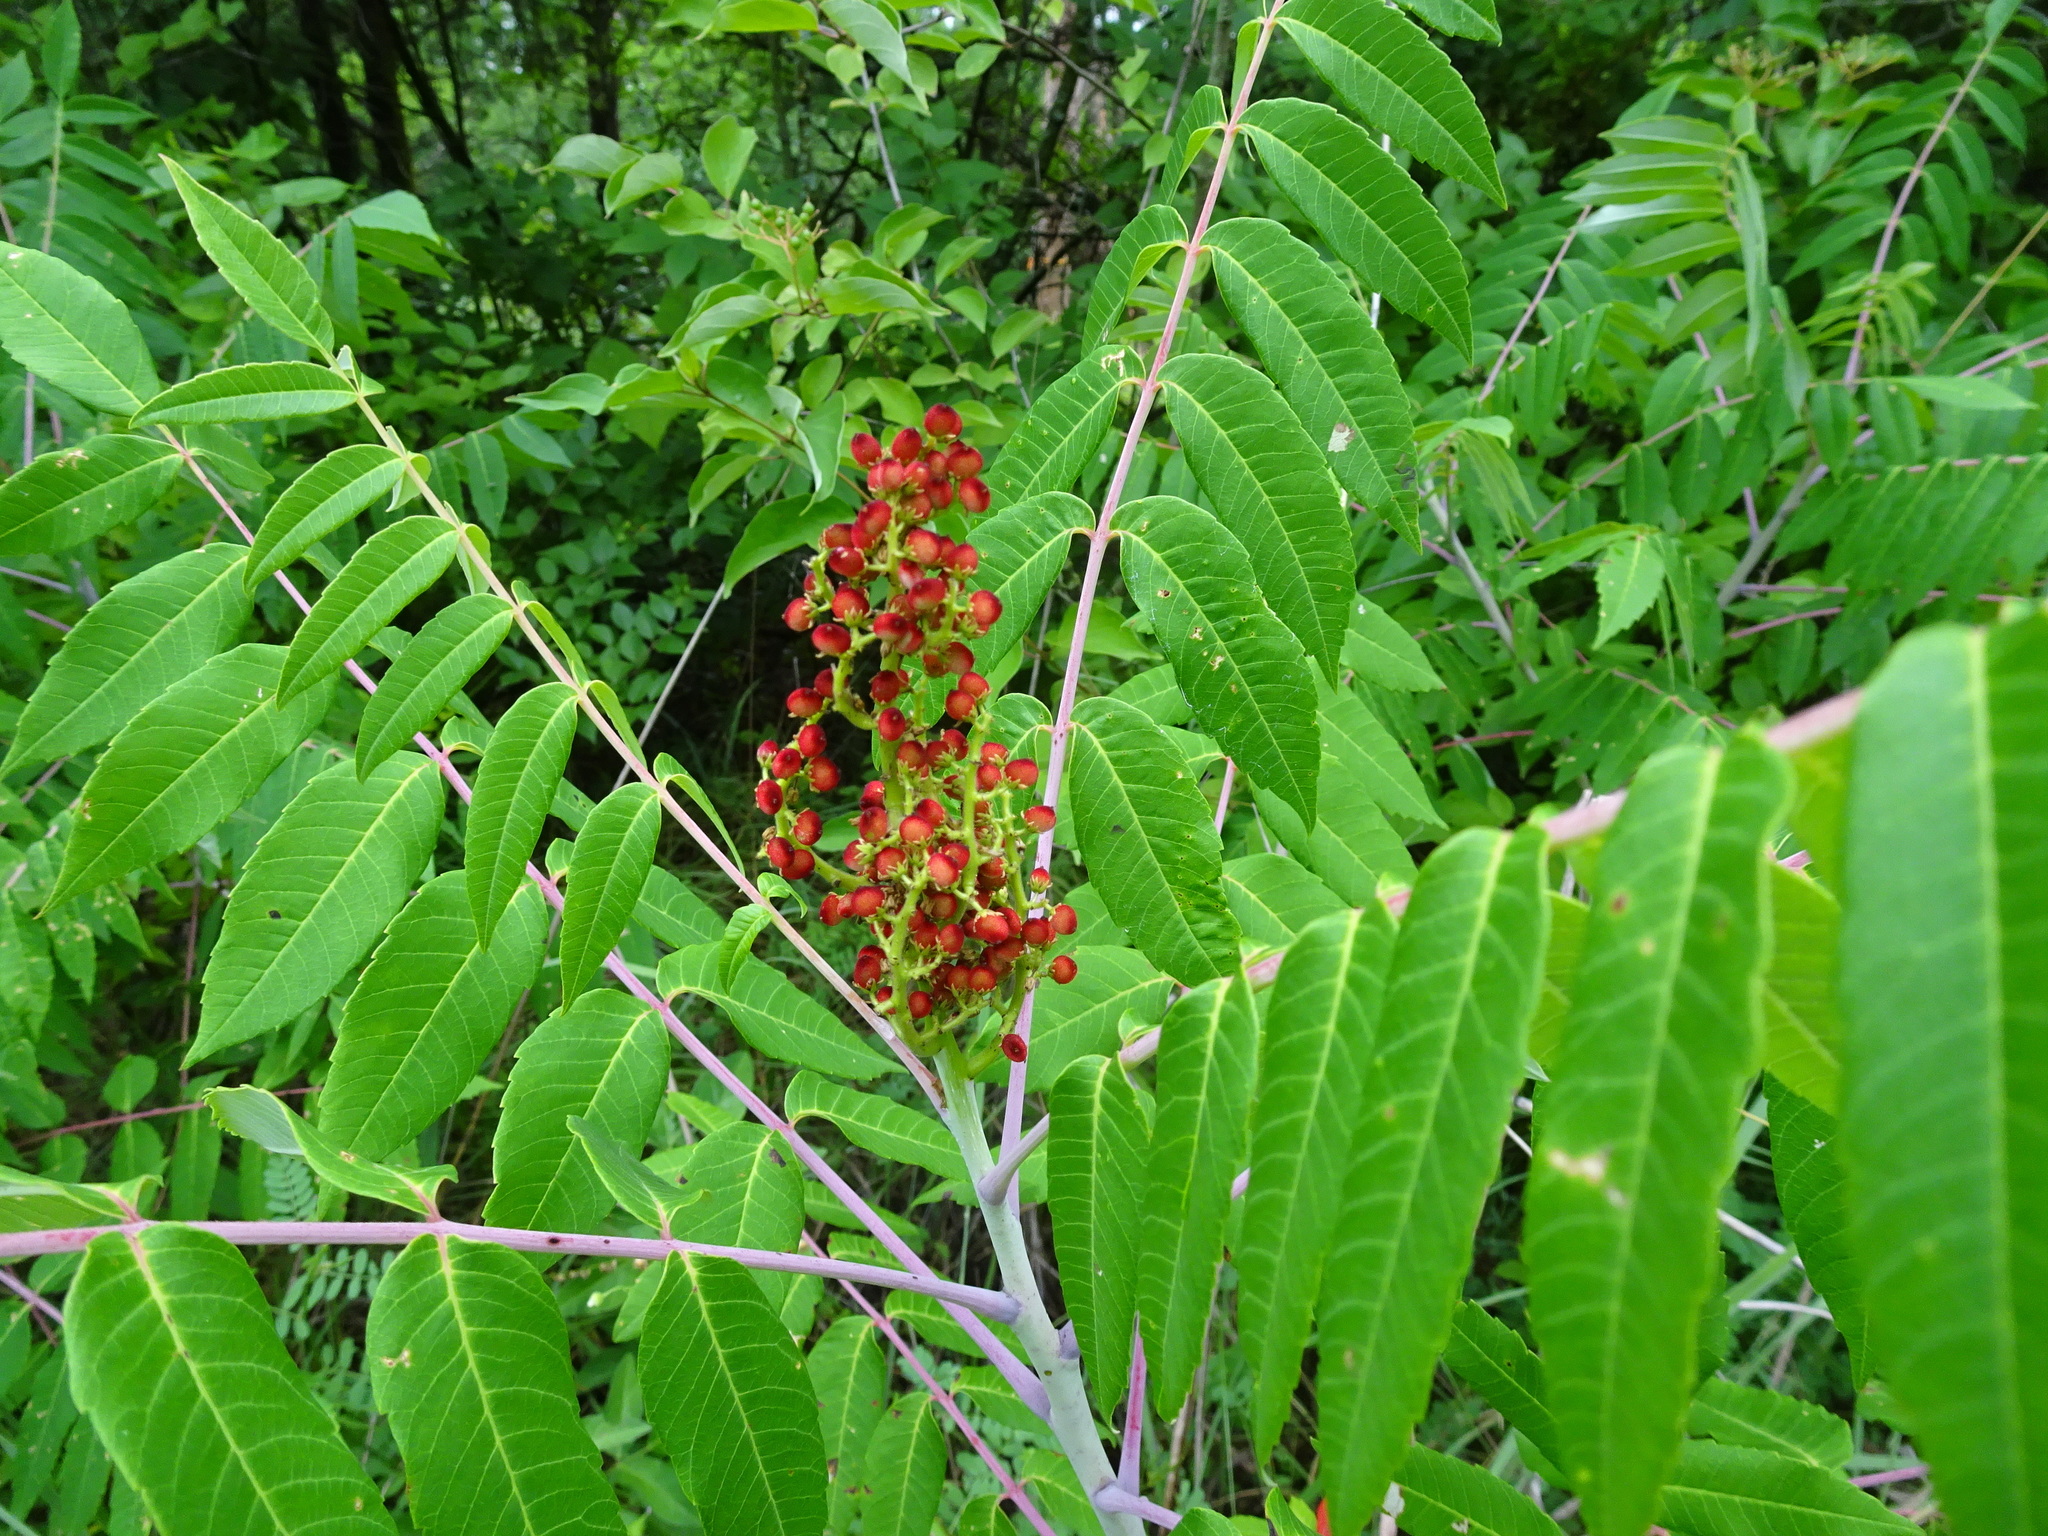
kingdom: Plantae
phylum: Tracheophyta
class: Magnoliopsida
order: Sapindales
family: Anacardiaceae
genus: Rhus
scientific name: Rhus glabra
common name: Scarlet sumac
